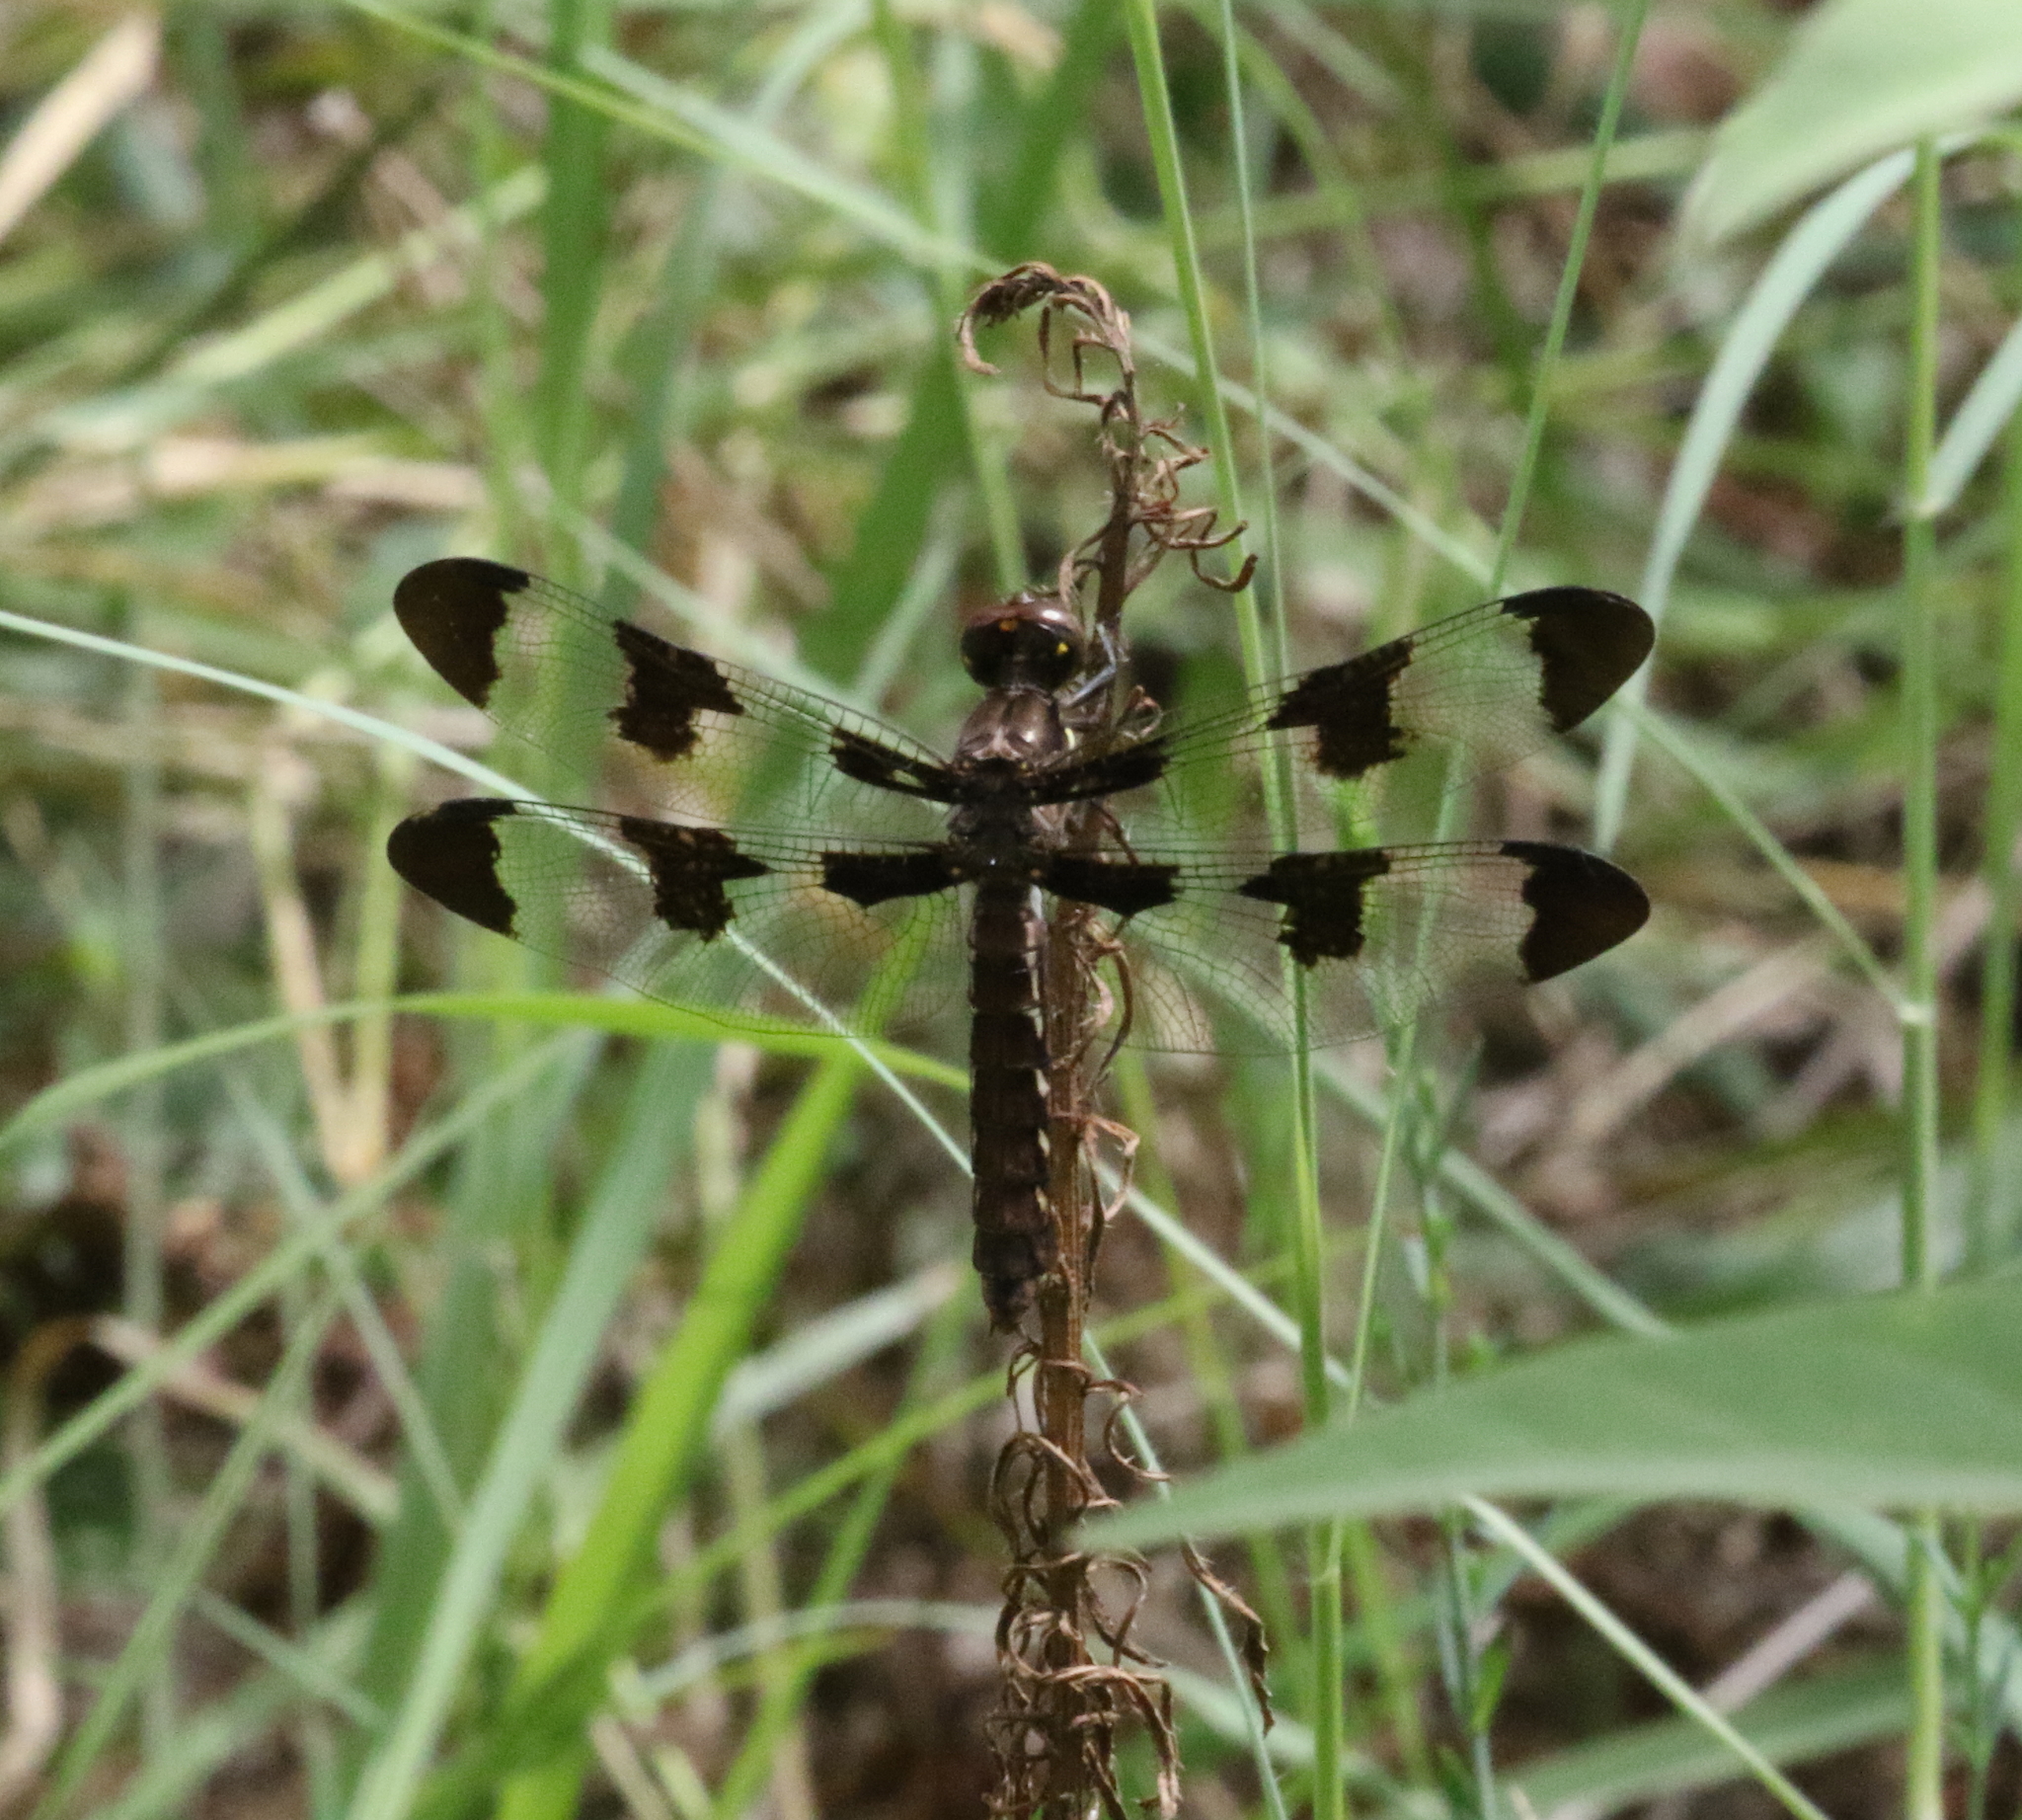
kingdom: Animalia
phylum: Arthropoda
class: Insecta
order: Odonata
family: Libellulidae
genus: Plathemis
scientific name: Plathemis lydia
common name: Common whitetail
